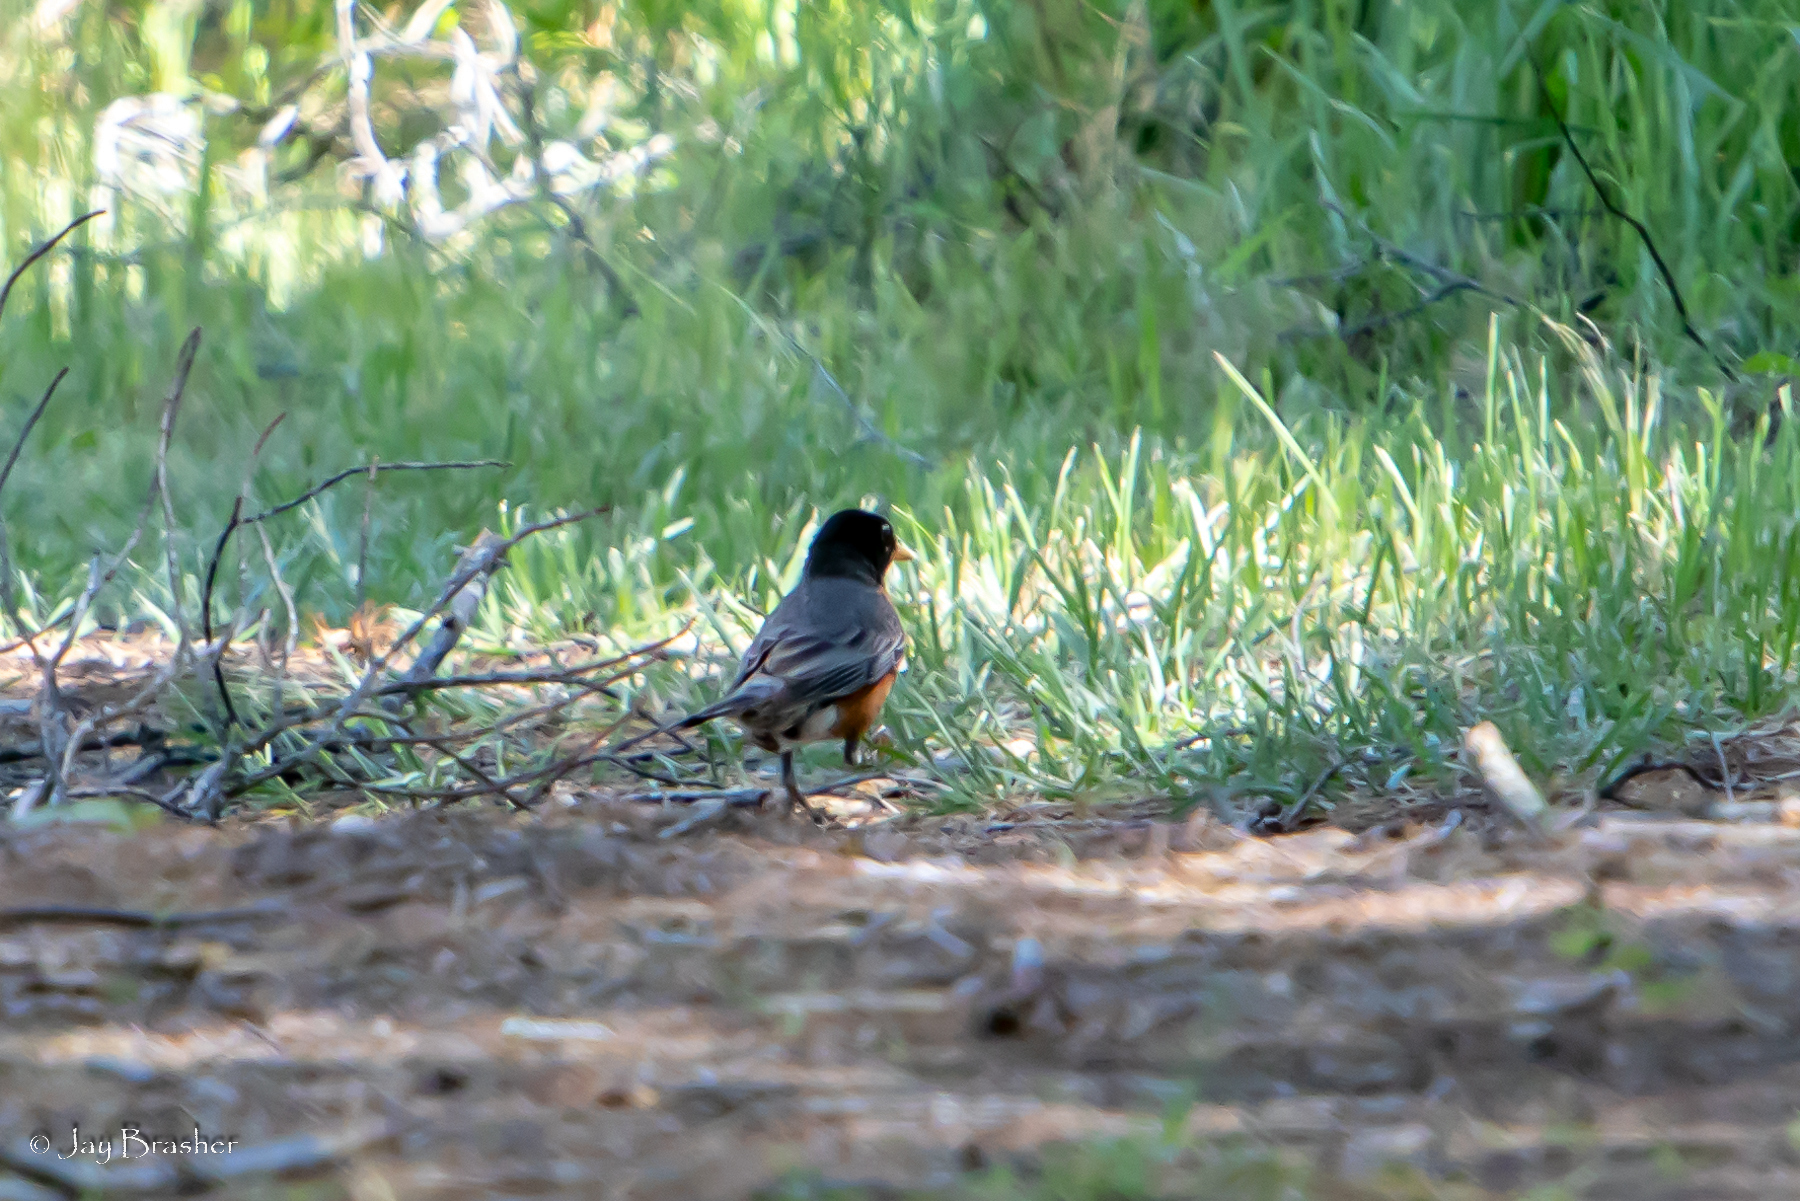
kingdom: Animalia
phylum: Chordata
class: Aves
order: Passeriformes
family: Turdidae
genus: Turdus
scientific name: Turdus migratorius
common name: American robin
